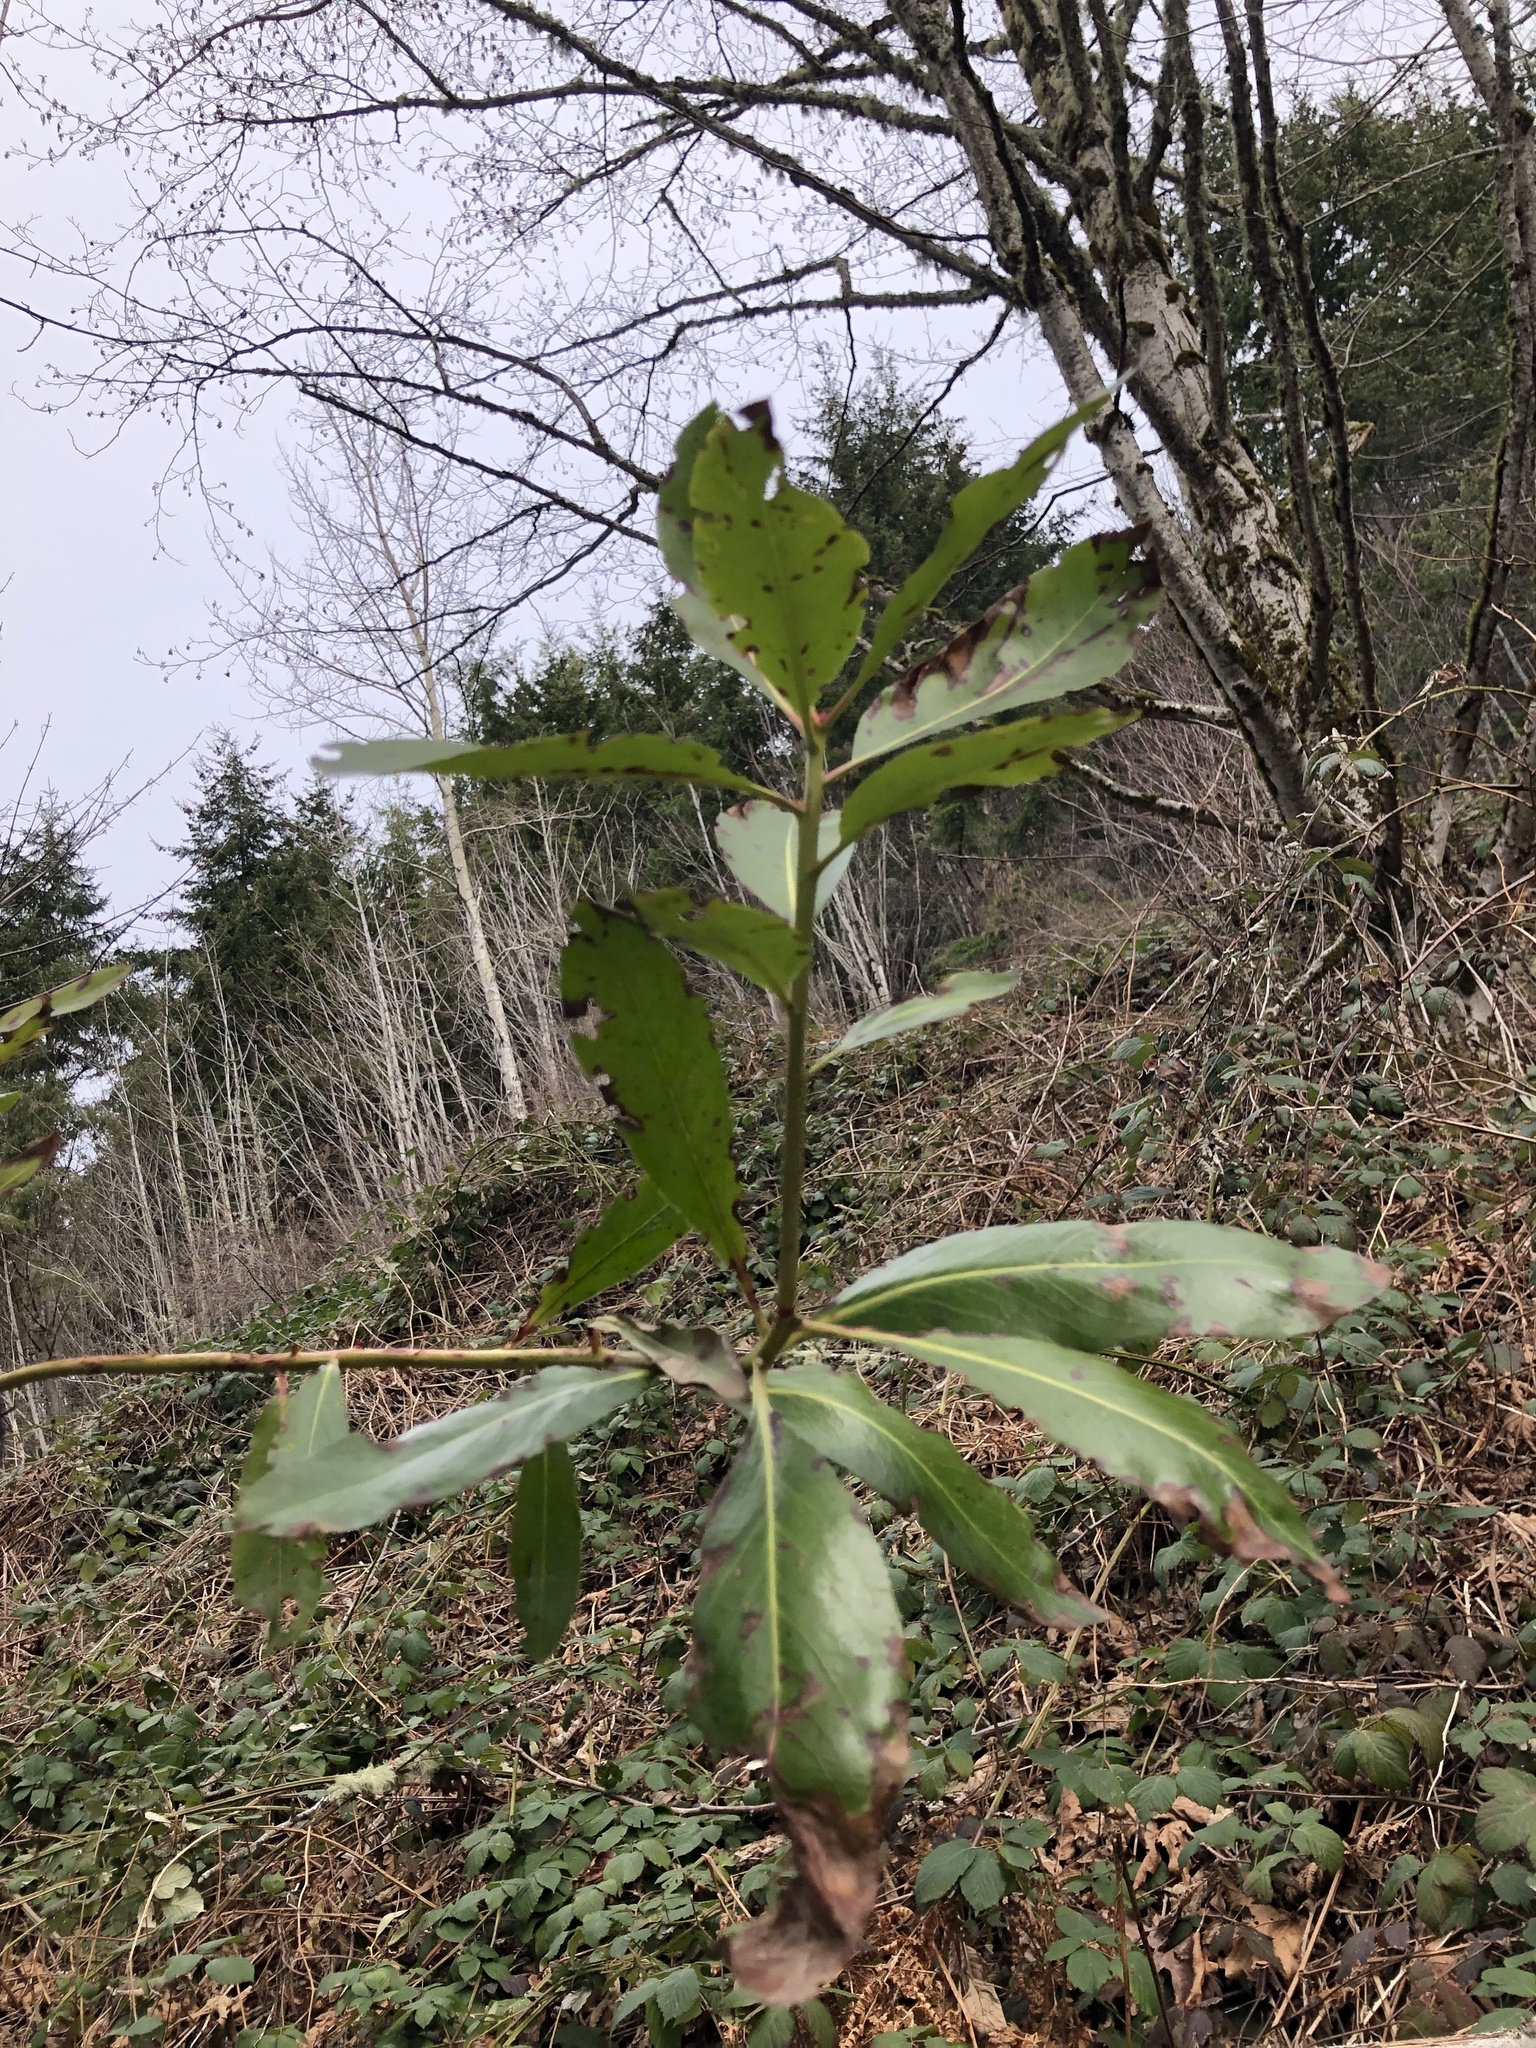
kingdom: Plantae
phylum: Tracheophyta
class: Magnoliopsida
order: Ericales
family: Ericaceae
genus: Arbutus
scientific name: Arbutus menziesii
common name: Pacific madrone
